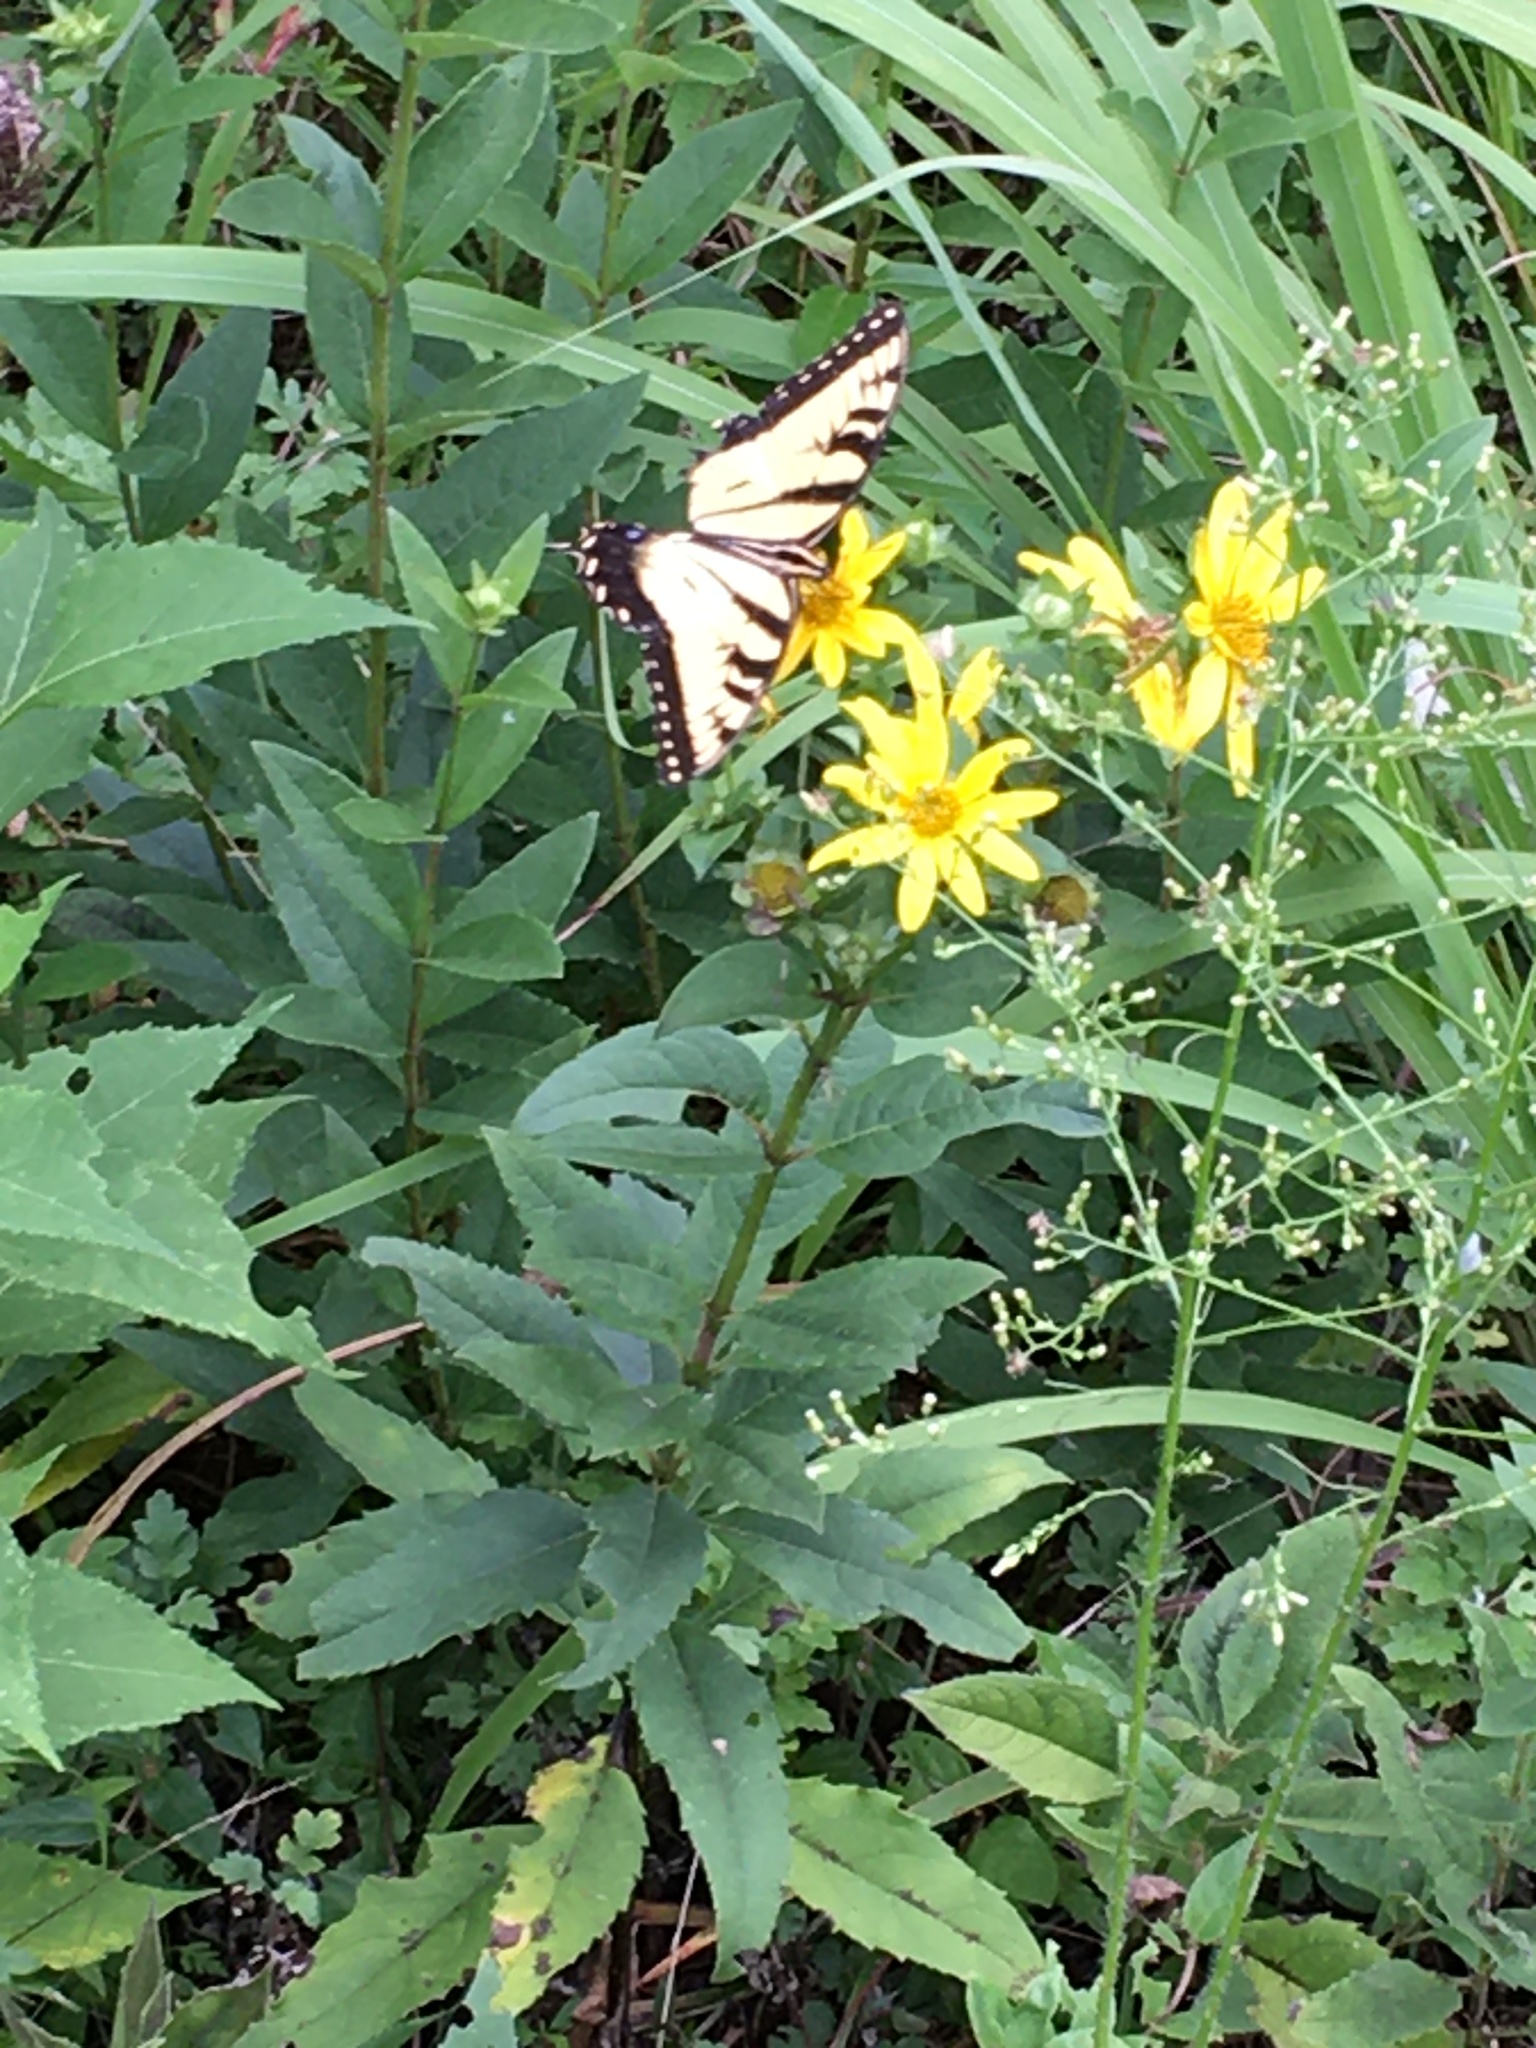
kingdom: Animalia
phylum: Arthropoda
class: Insecta
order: Lepidoptera
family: Papilionidae
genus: Papilio
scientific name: Papilio glaucus
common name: Tiger swallowtail
